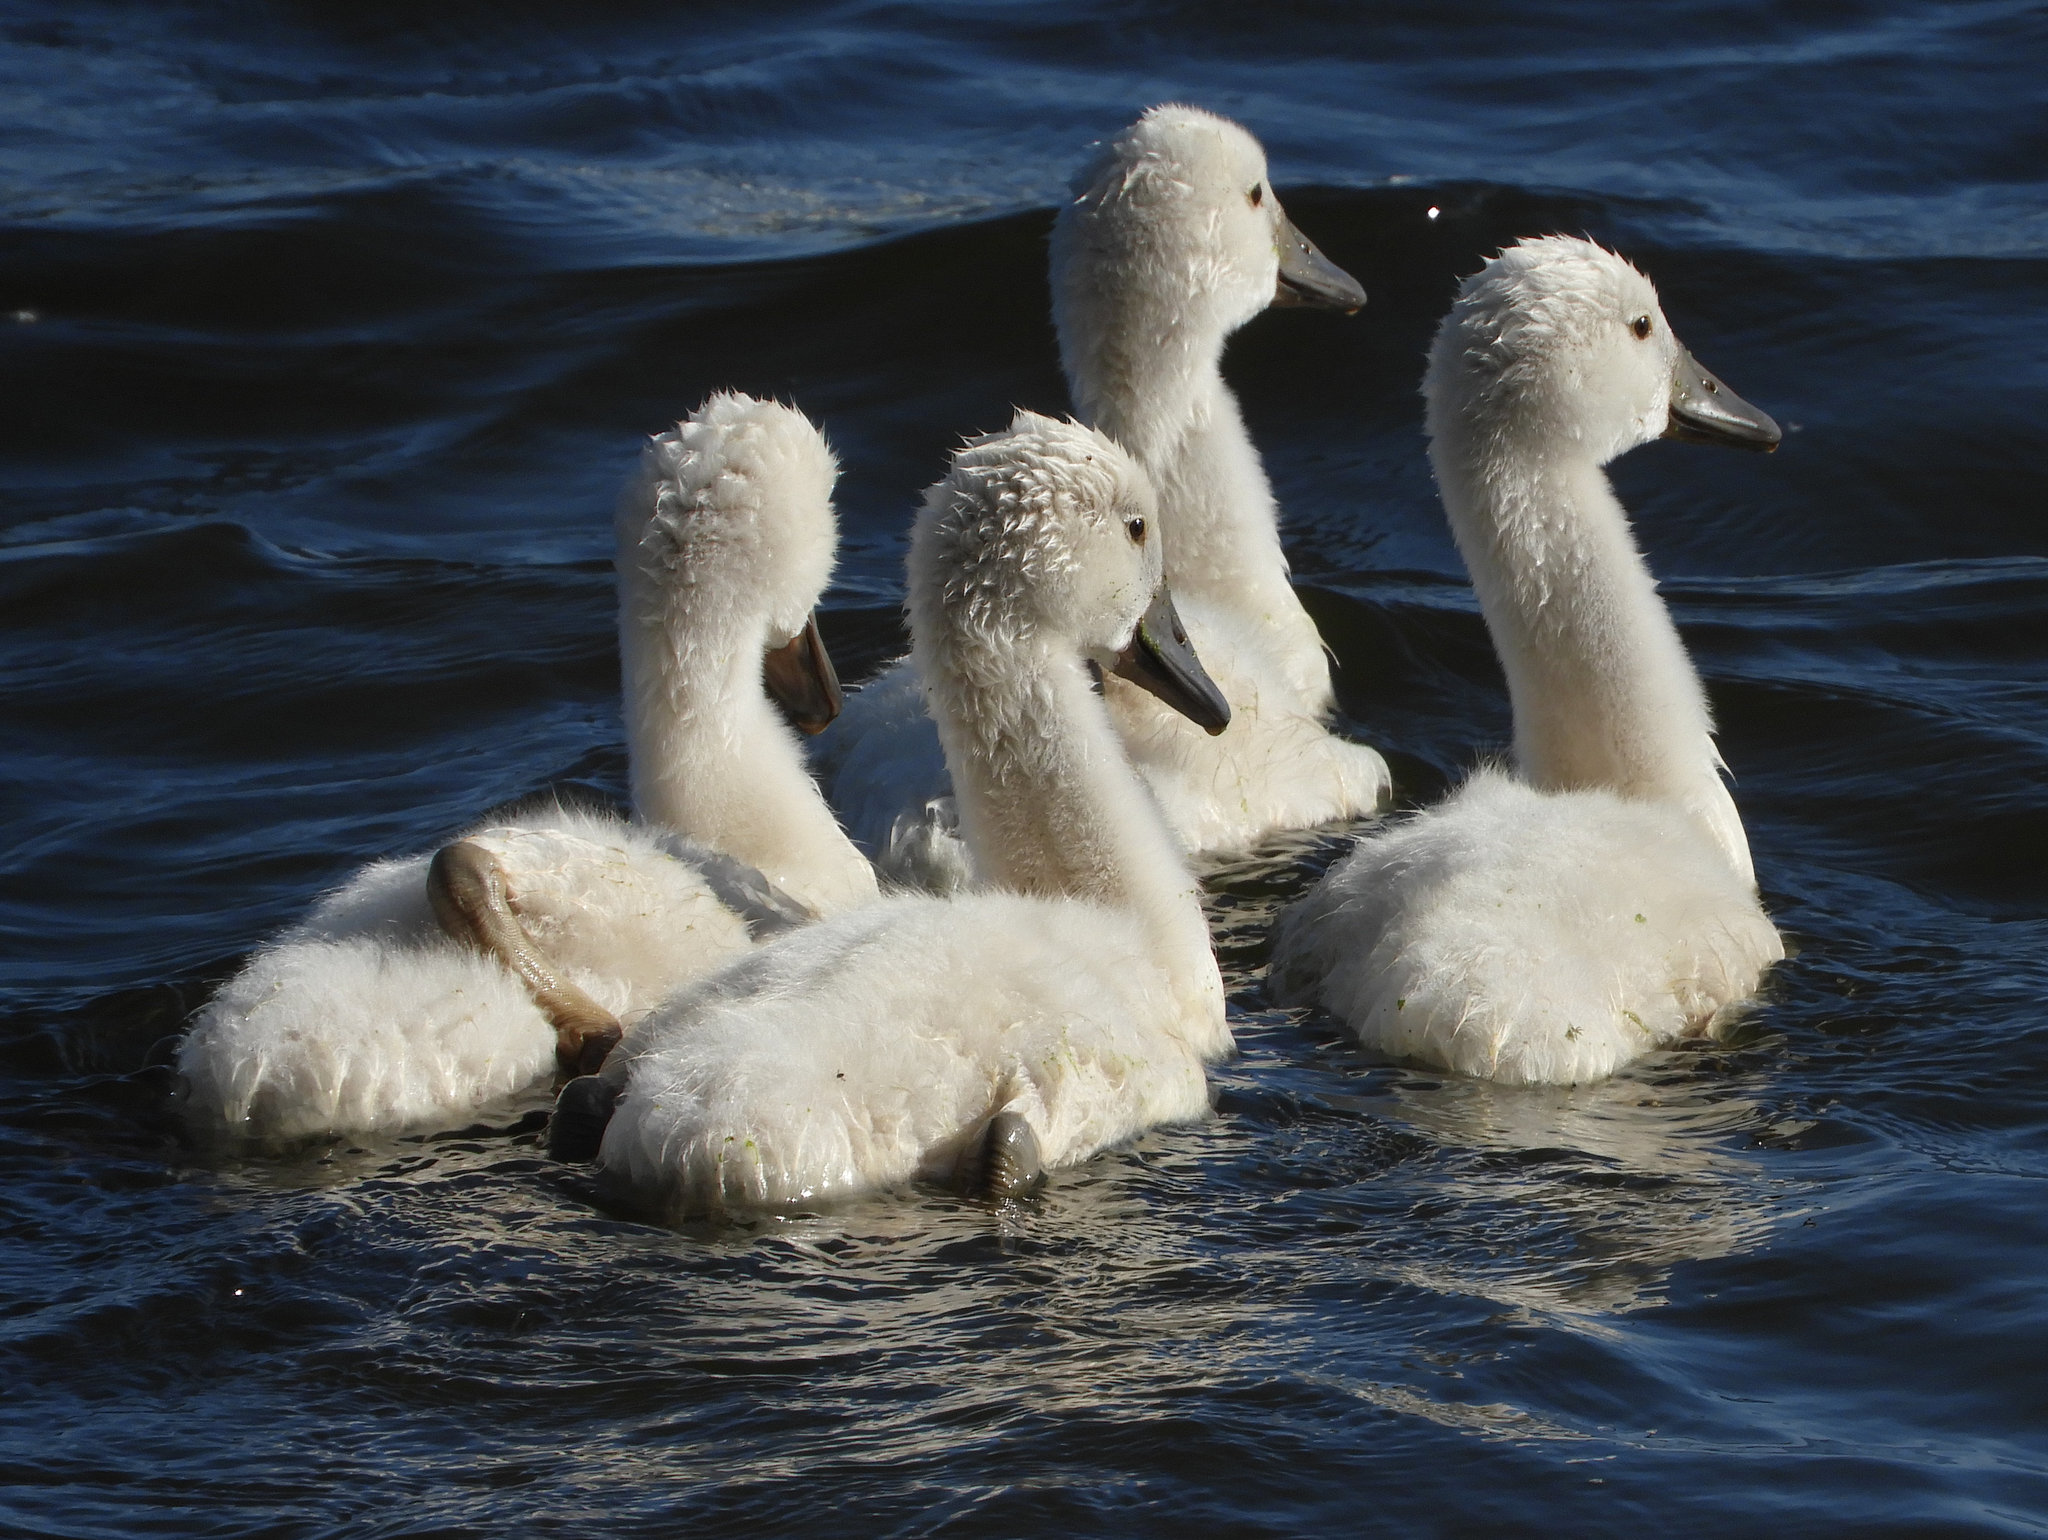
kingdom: Animalia
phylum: Chordata
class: Aves
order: Anseriformes
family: Anatidae
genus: Cygnus
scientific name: Cygnus olor
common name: Mute swan
